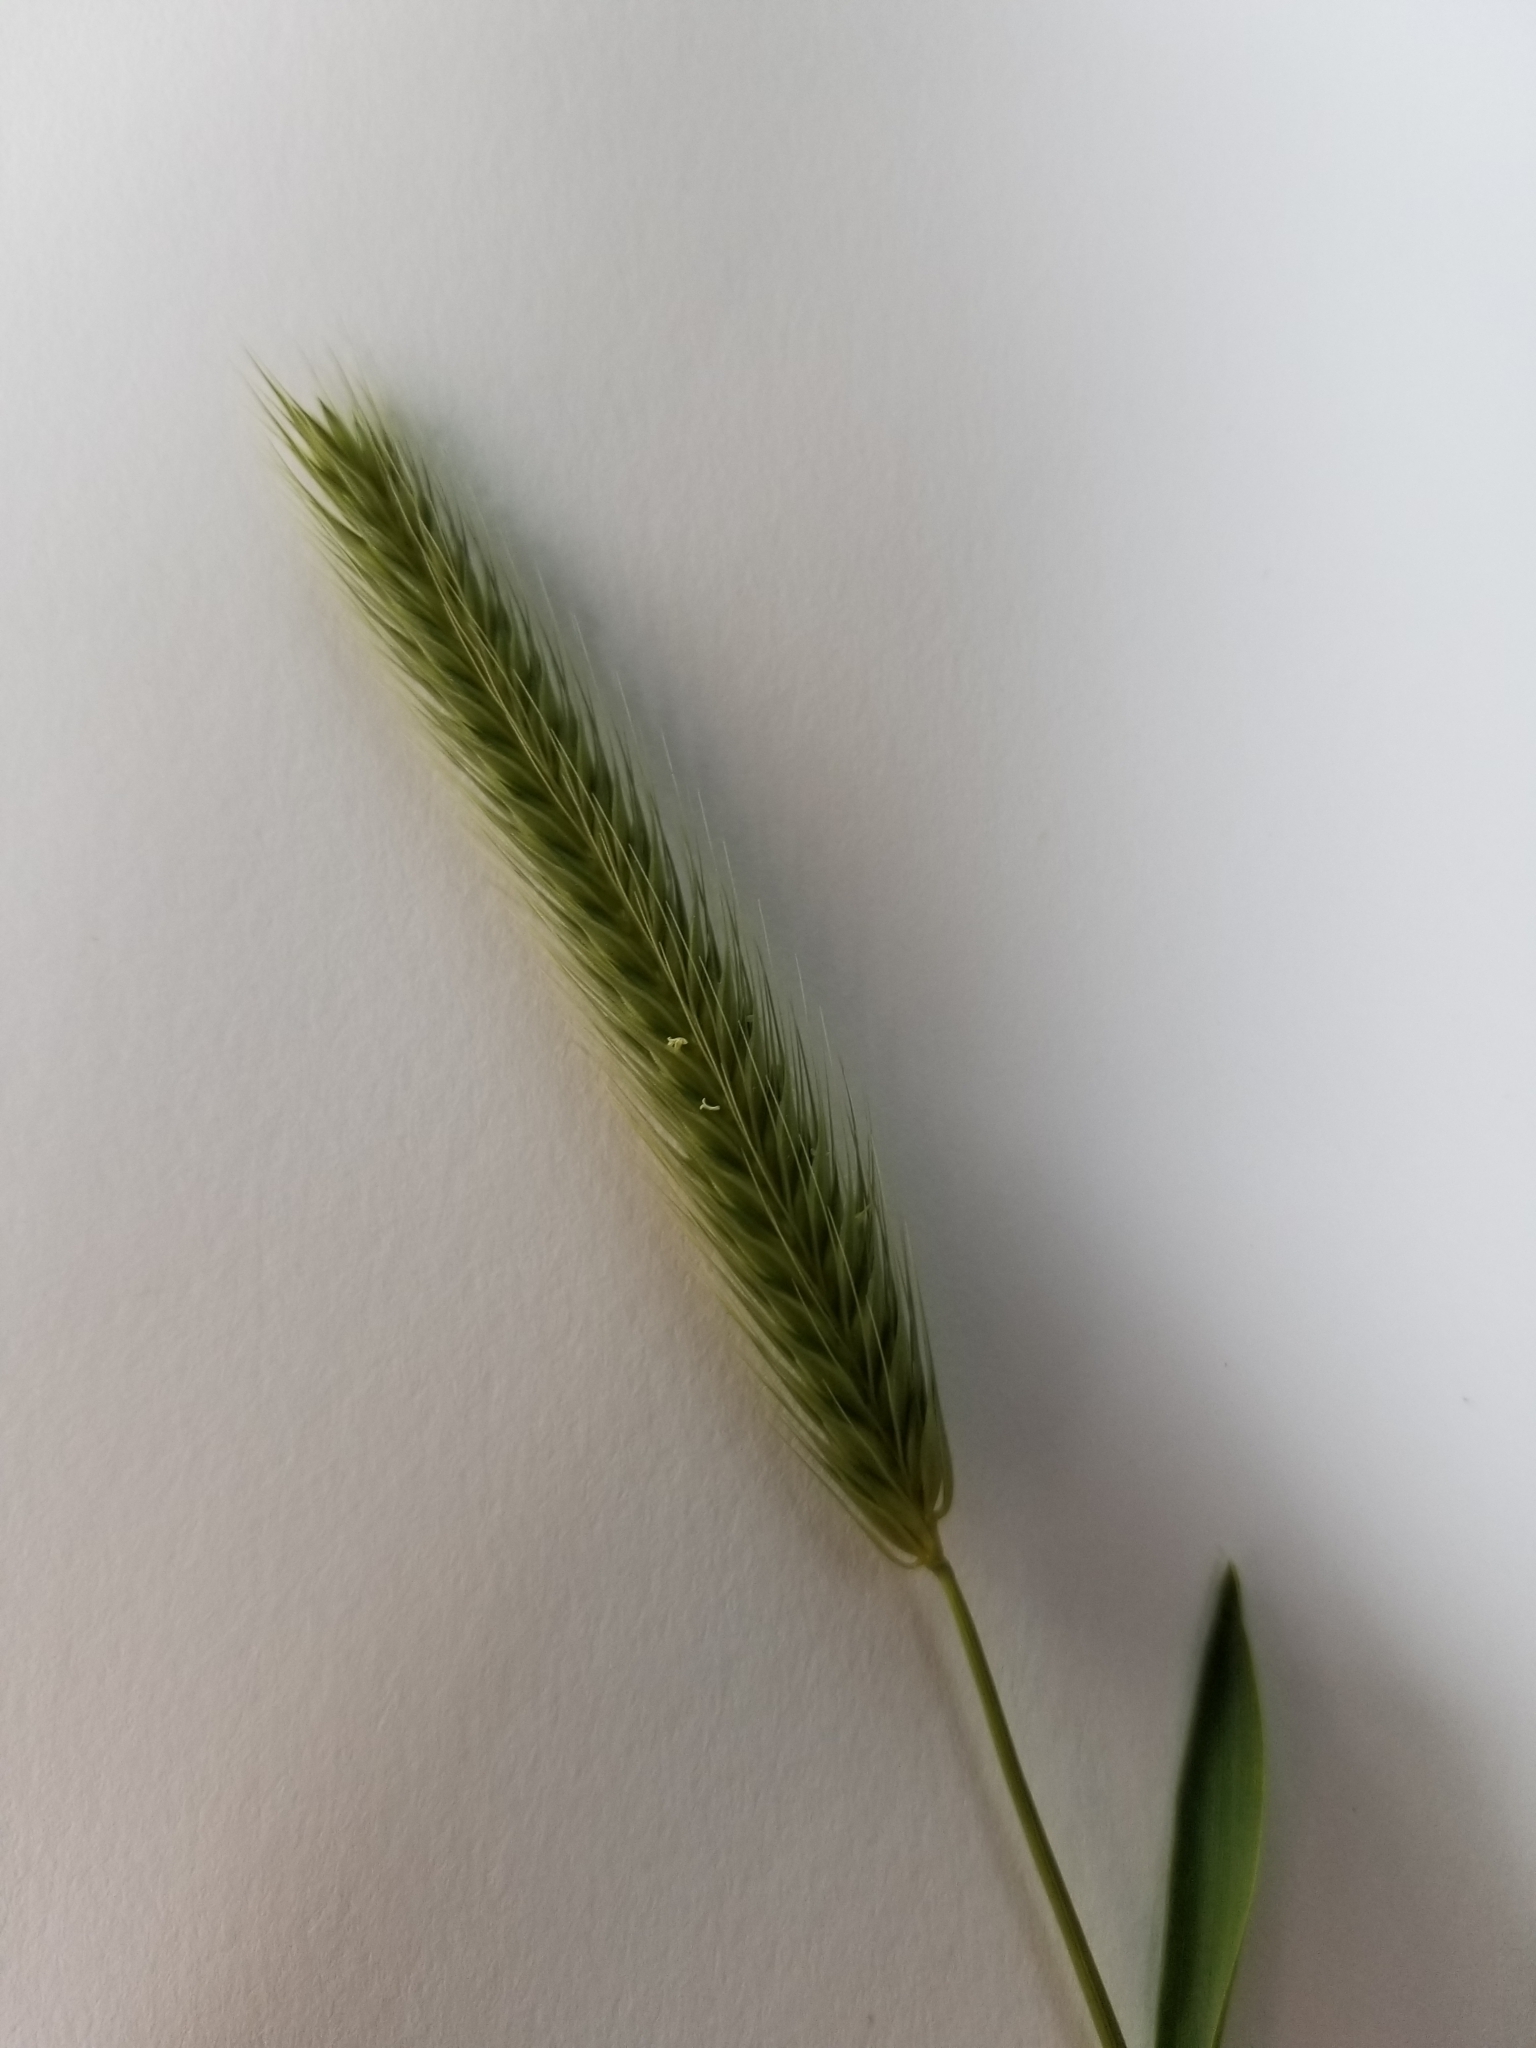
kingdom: Plantae
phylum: Tracheophyta
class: Liliopsida
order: Poales
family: Poaceae
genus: Hordeum
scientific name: Hordeum pusillum
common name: Little barley
